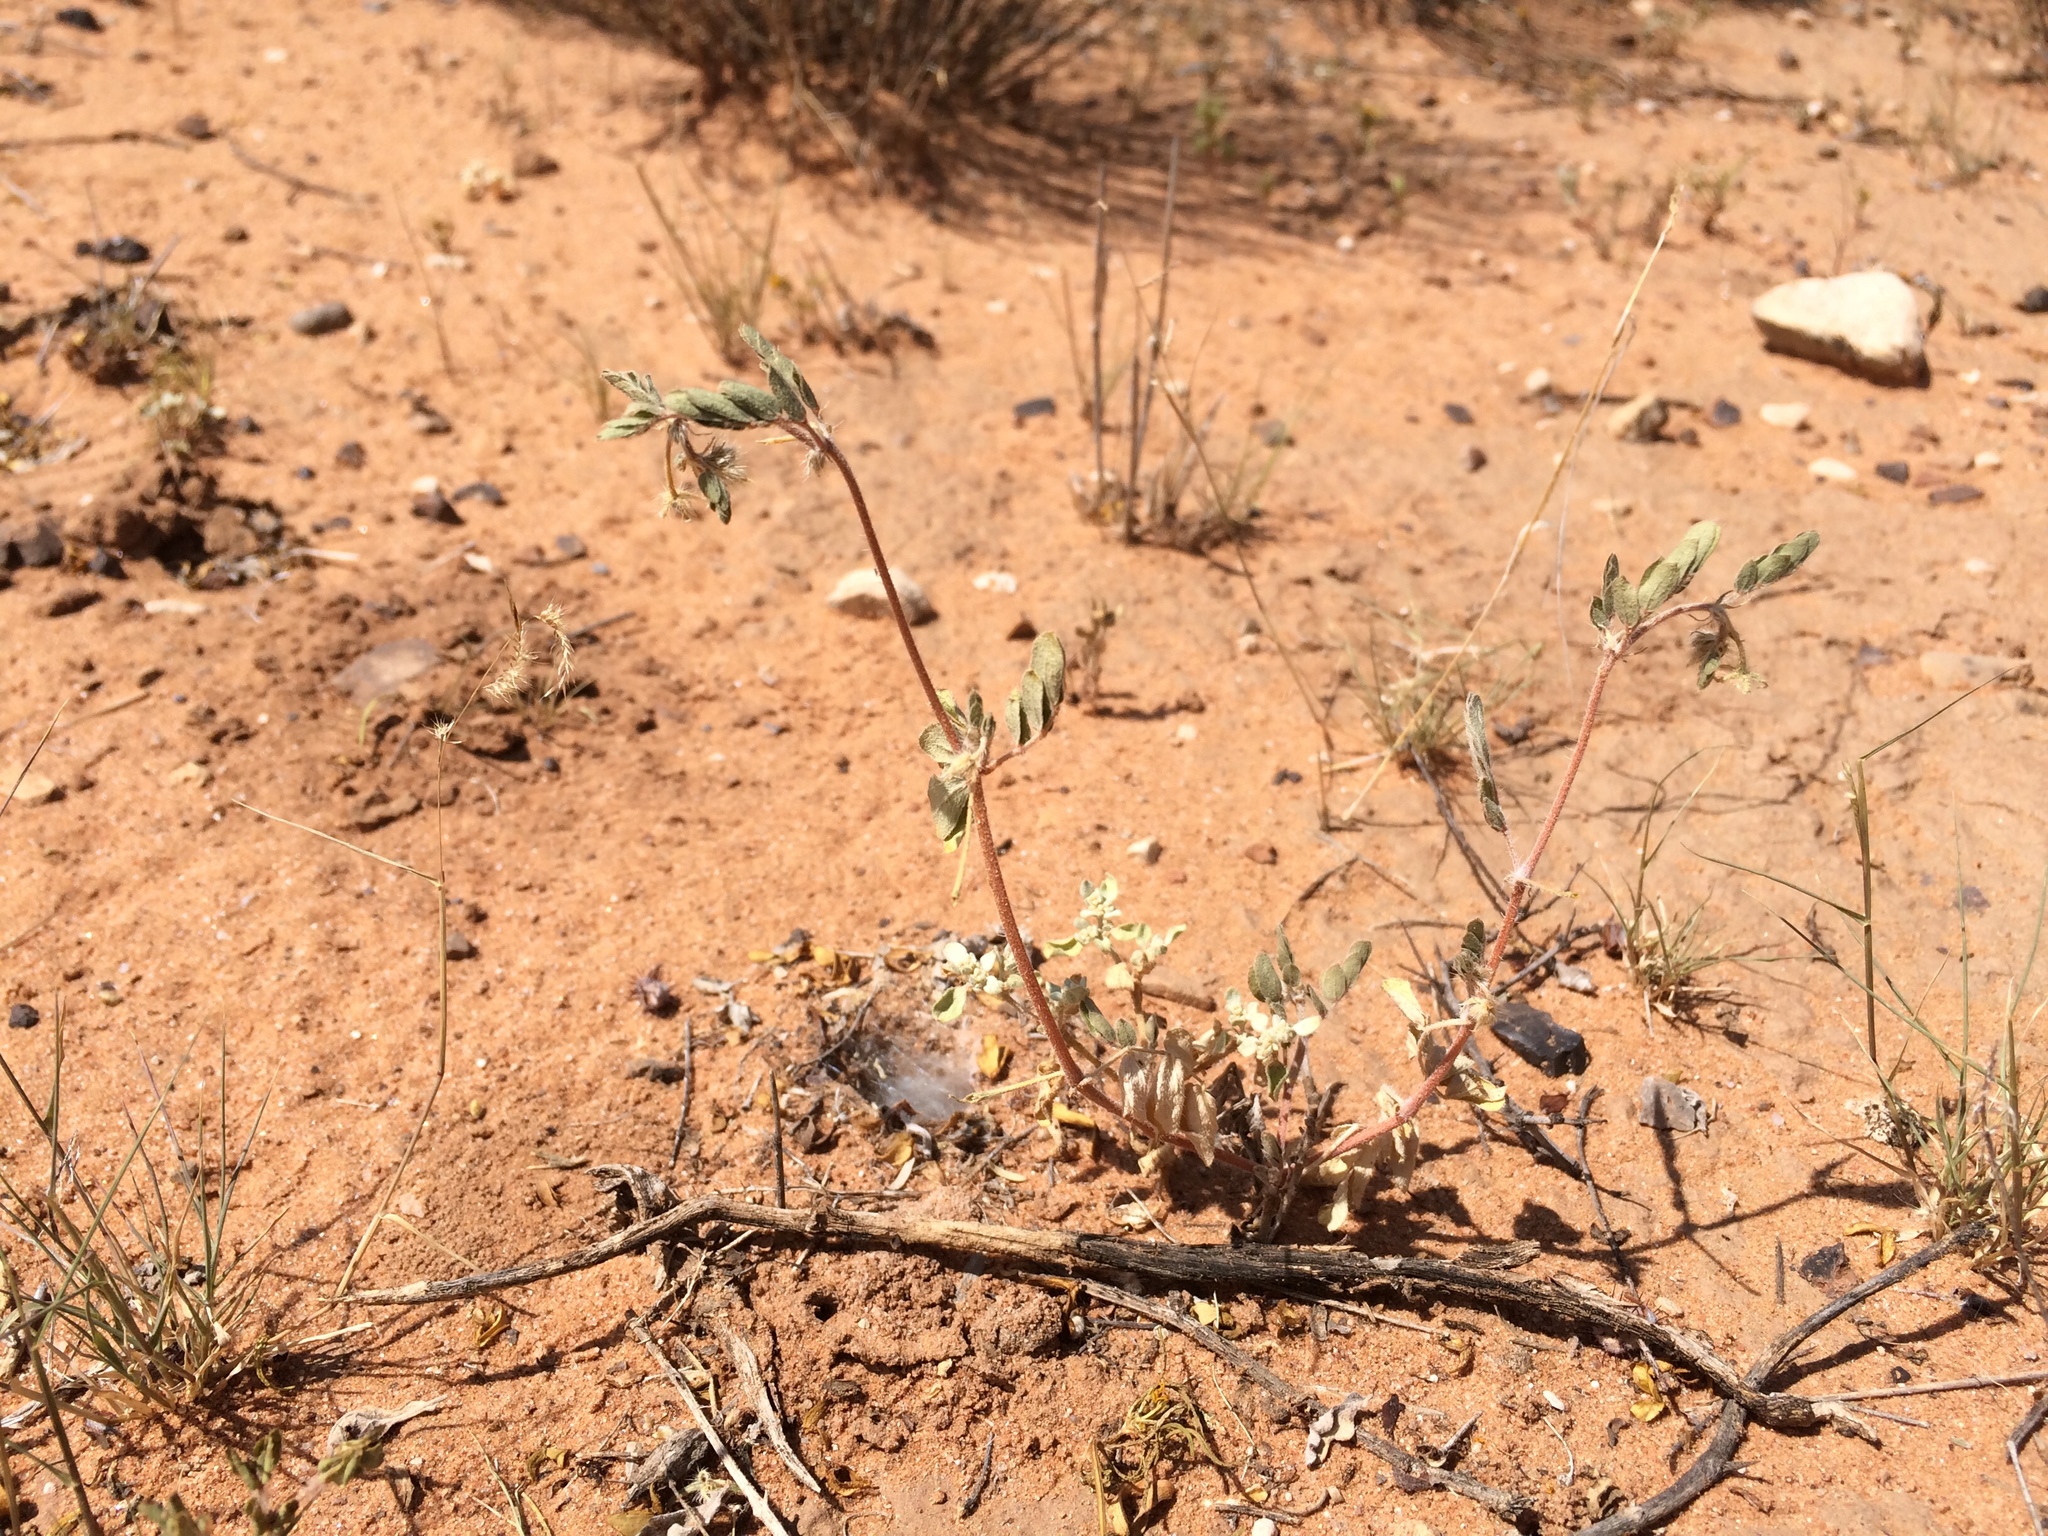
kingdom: Plantae
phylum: Tracheophyta
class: Magnoliopsida
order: Zygophyllales
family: Zygophyllaceae
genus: Kallstroemia
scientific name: Kallstroemia parviflora
